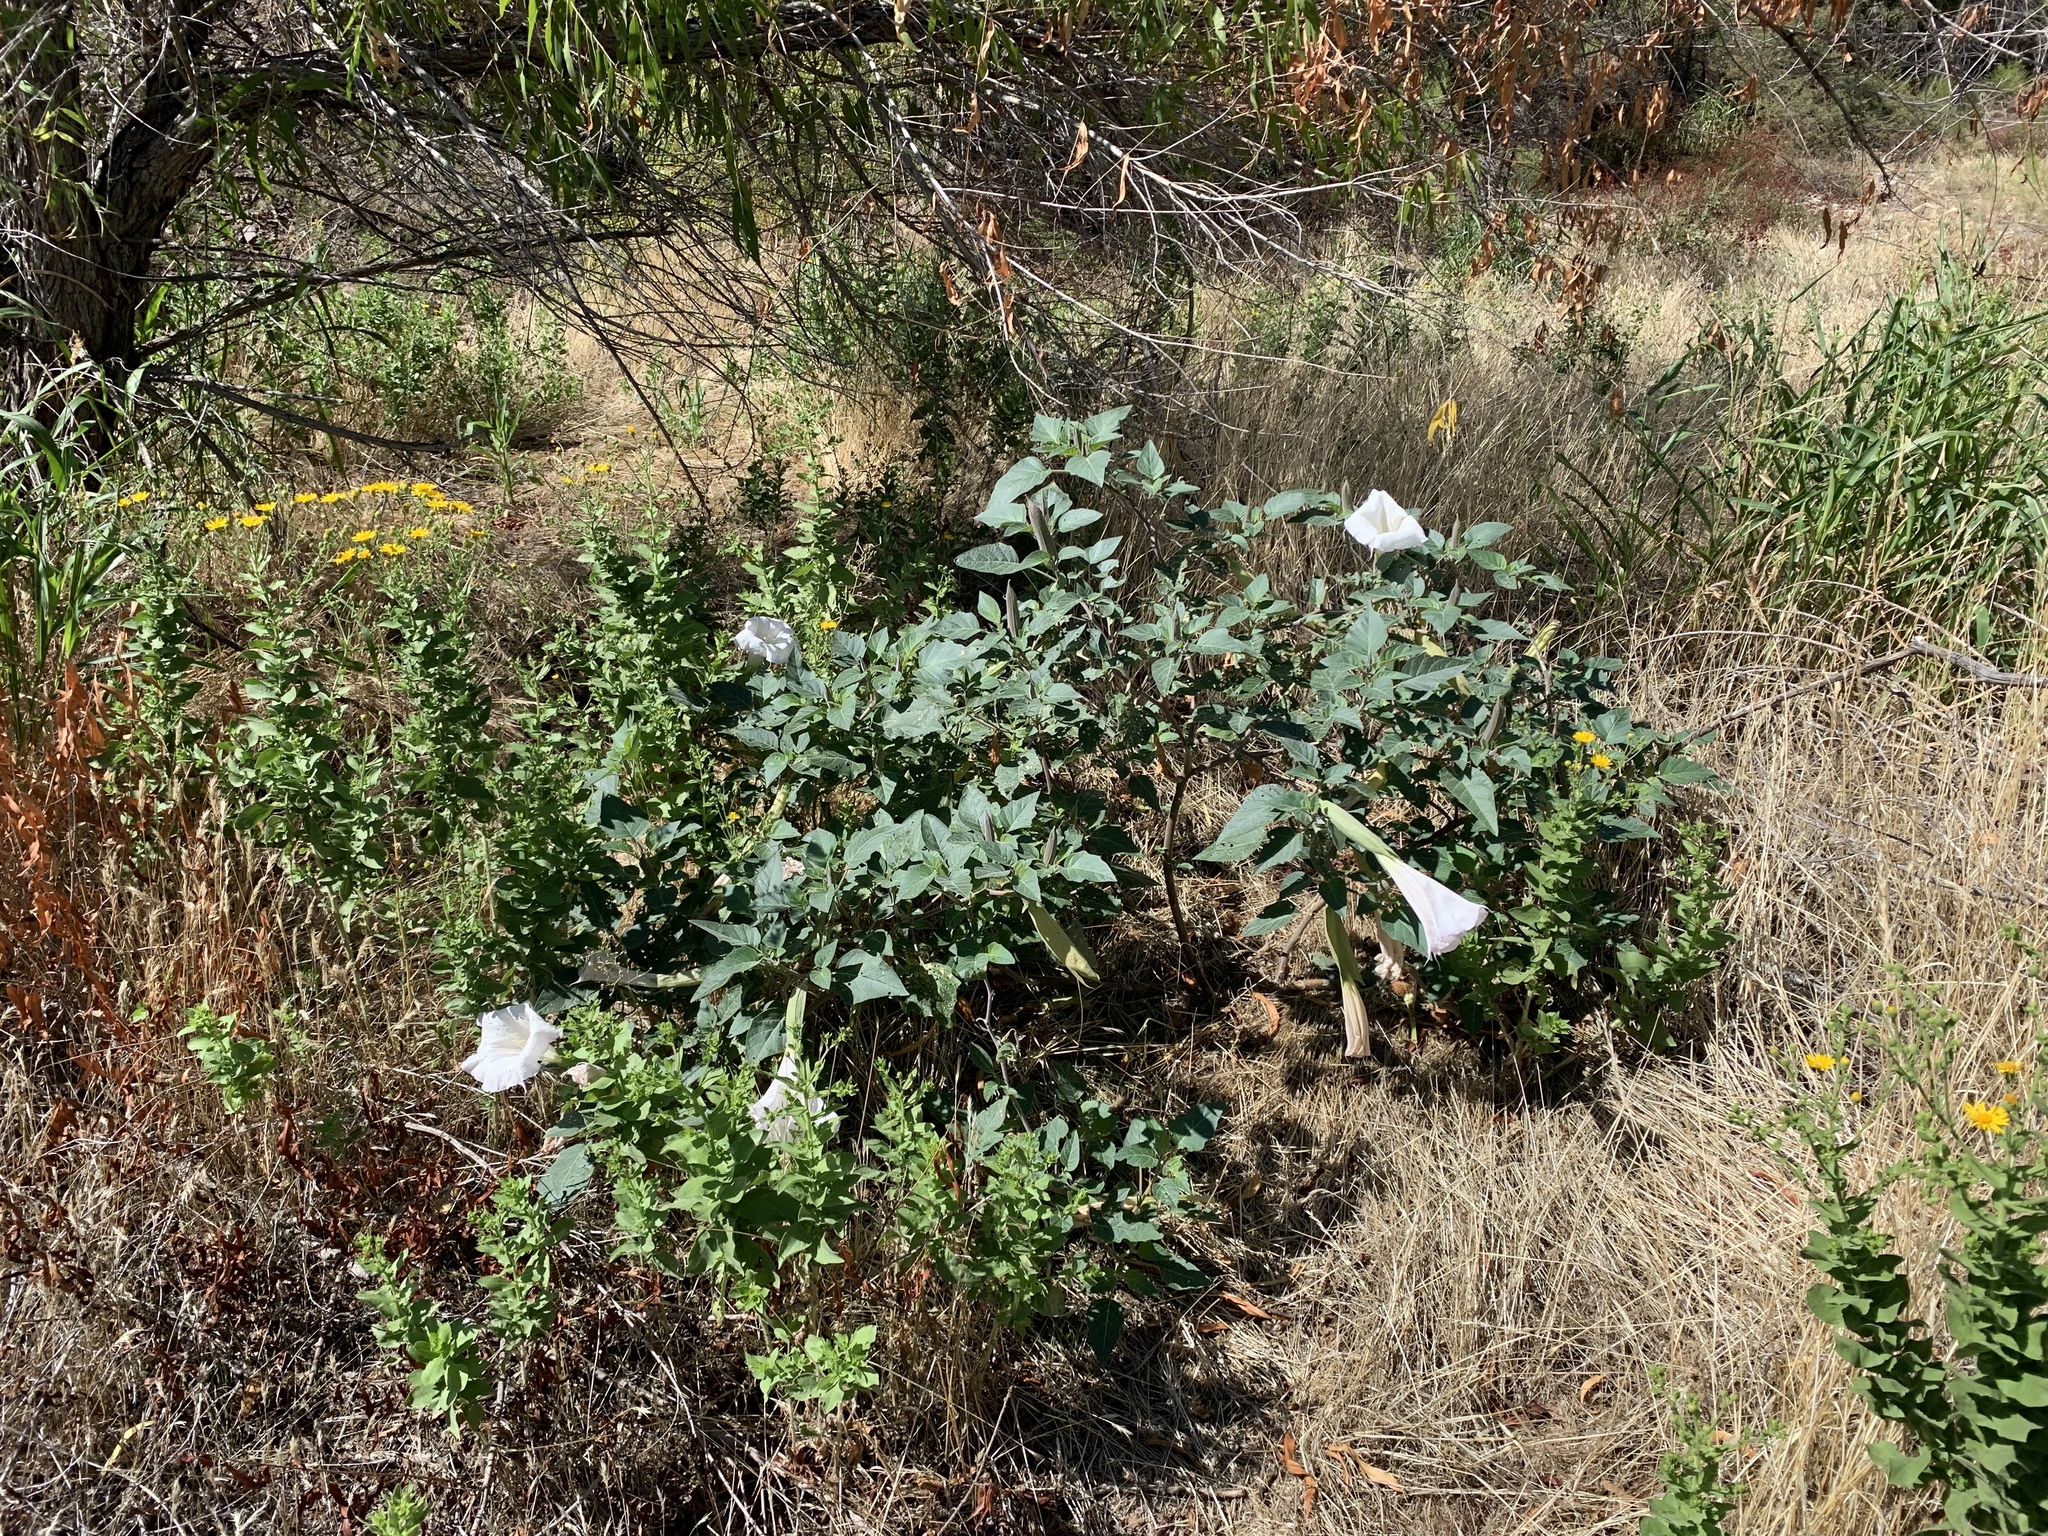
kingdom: Plantae
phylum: Tracheophyta
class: Magnoliopsida
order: Solanales
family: Solanaceae
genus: Datura
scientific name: Datura wrightii
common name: Sacred thorn-apple
